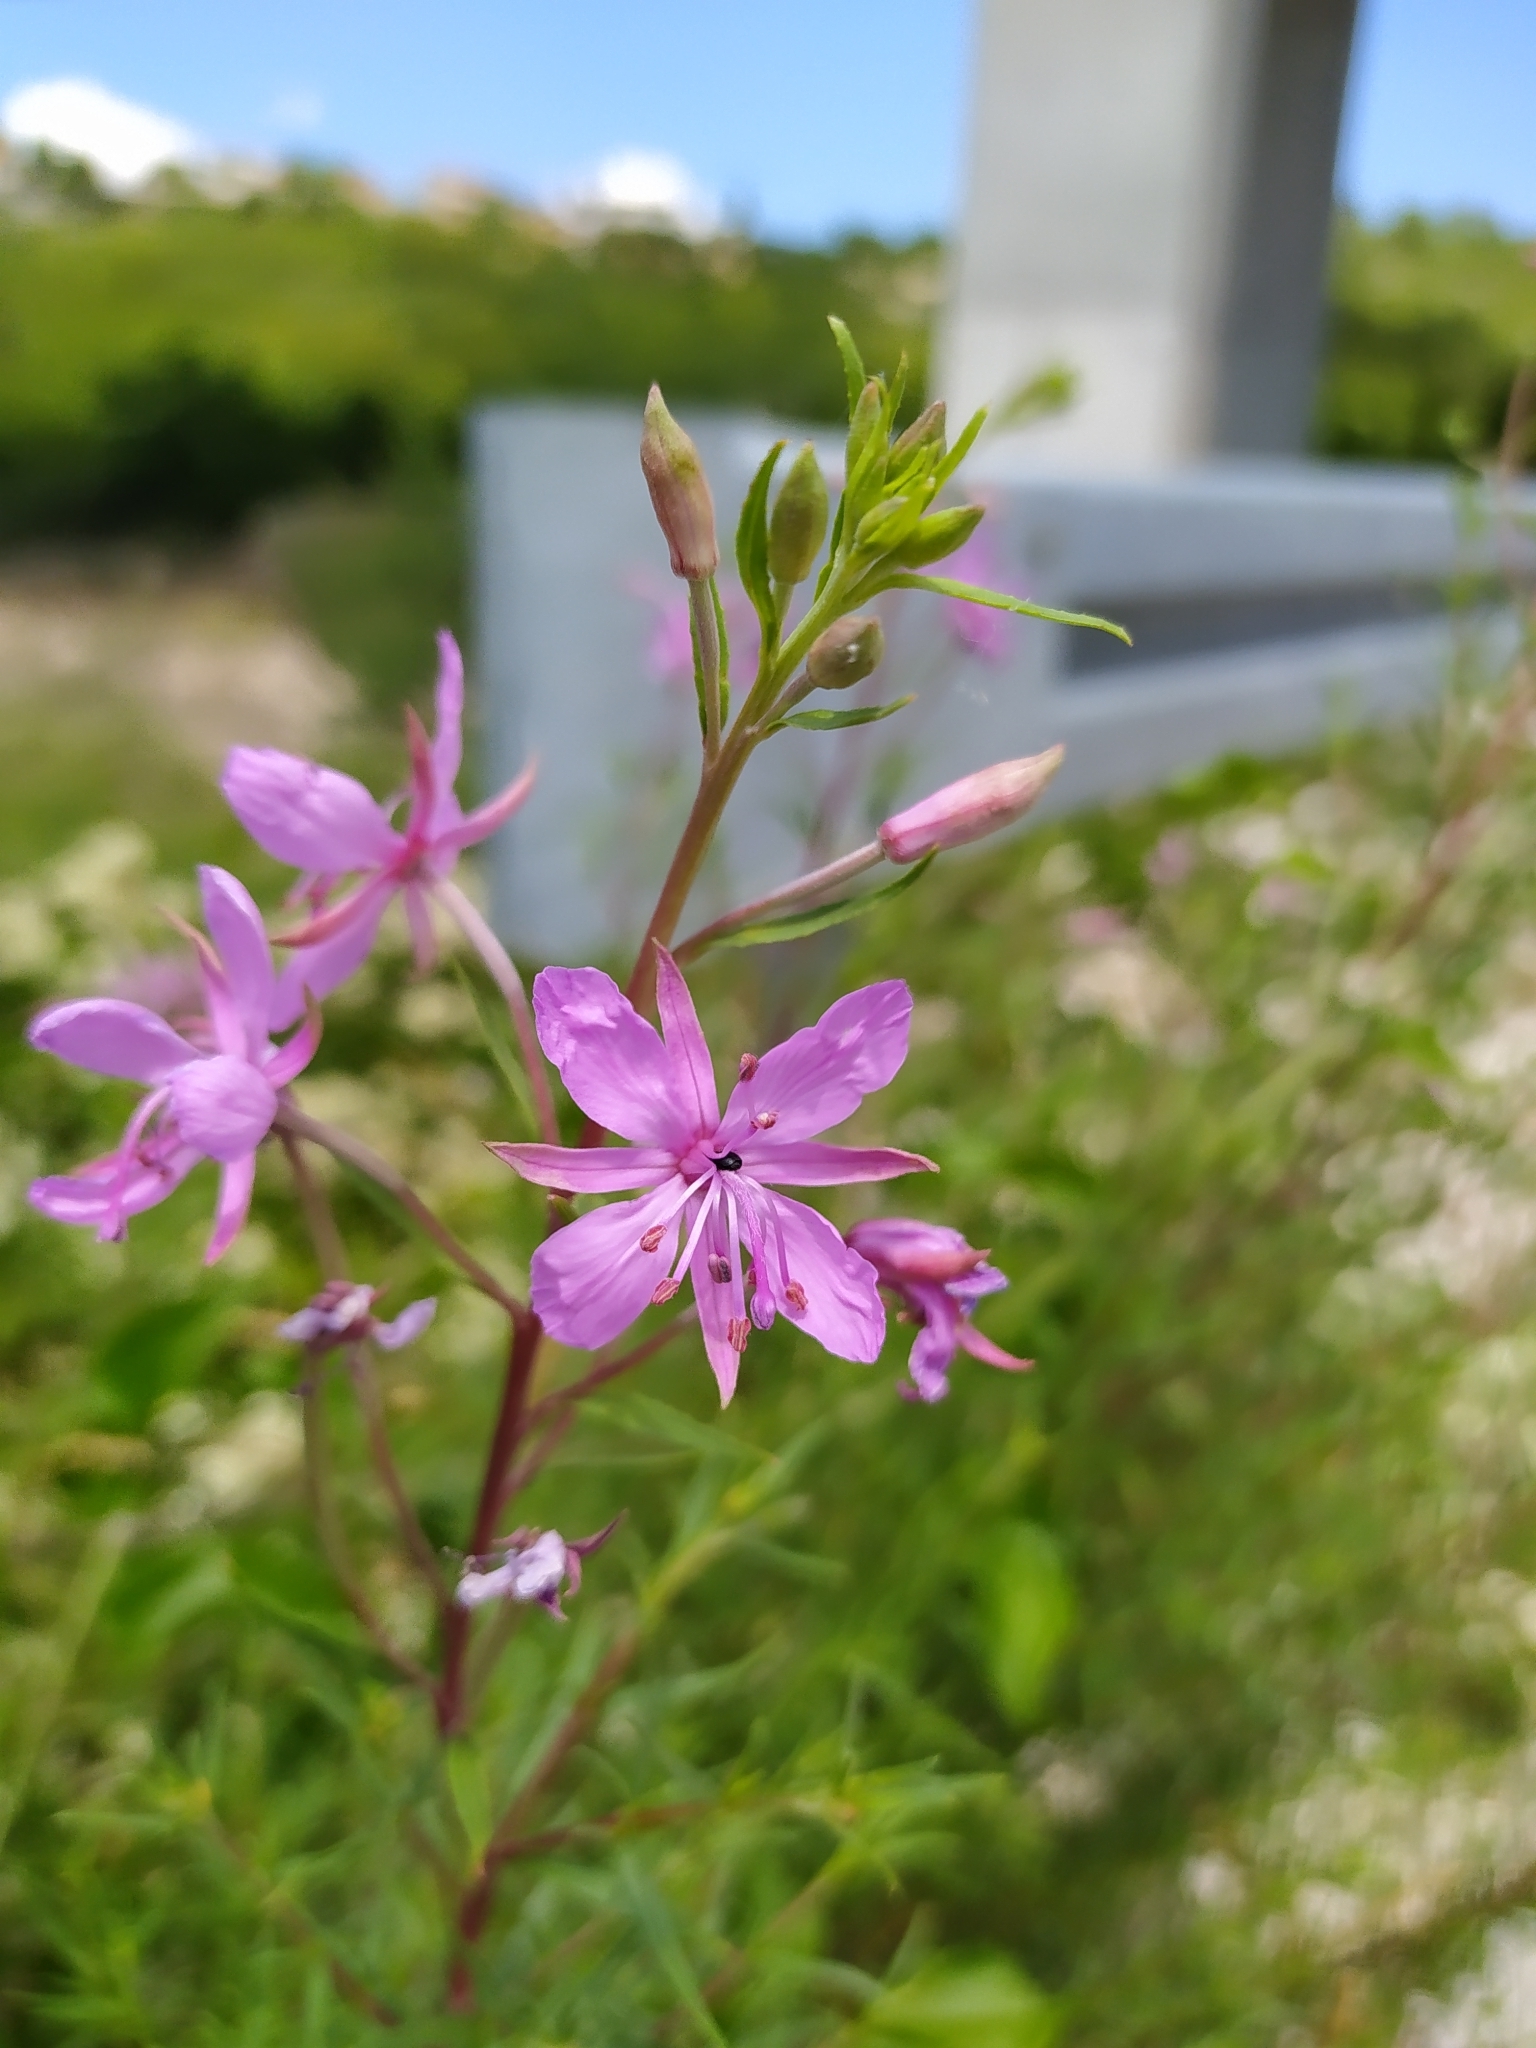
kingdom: Plantae
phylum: Tracheophyta
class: Magnoliopsida
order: Myrtales
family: Onagraceae
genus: Chamaenerion
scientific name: Chamaenerion dodonaei
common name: Rosemary-leaved willowherb
